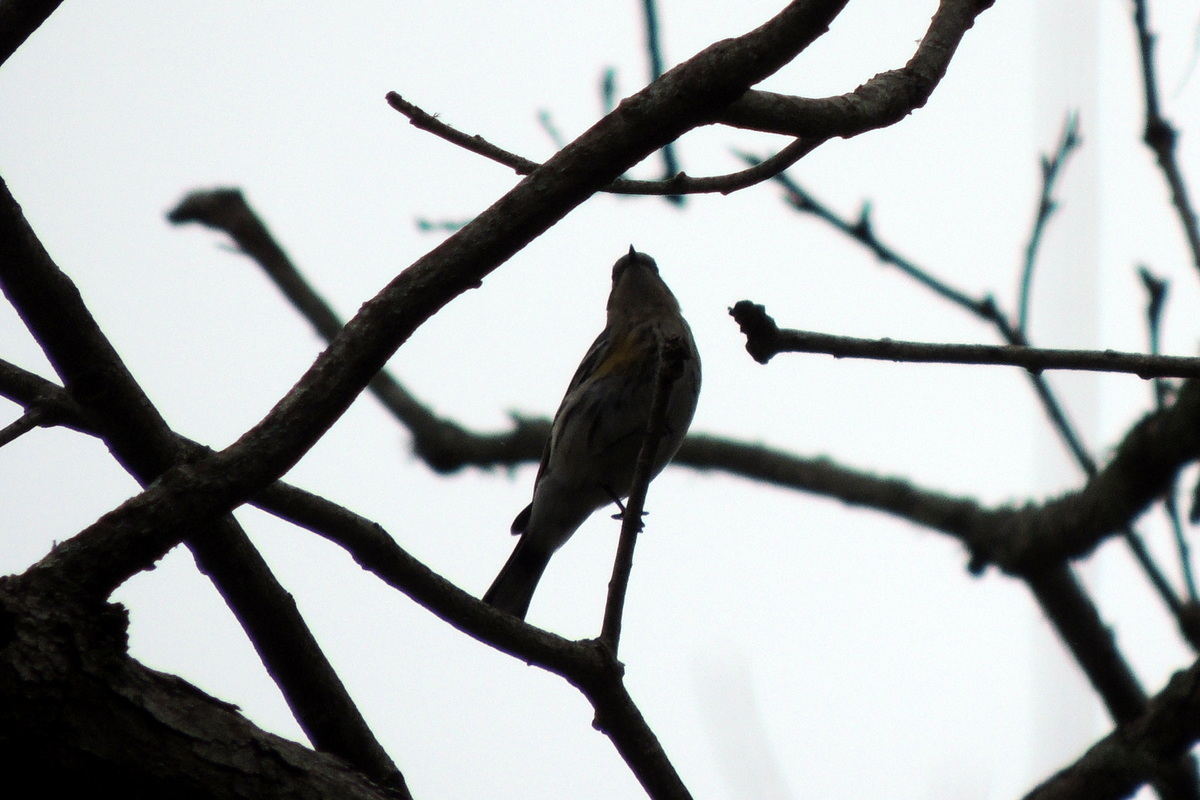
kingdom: Animalia
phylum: Chordata
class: Aves
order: Passeriformes
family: Parulidae
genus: Setophaga
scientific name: Setophaga coronata
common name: Myrtle warbler
